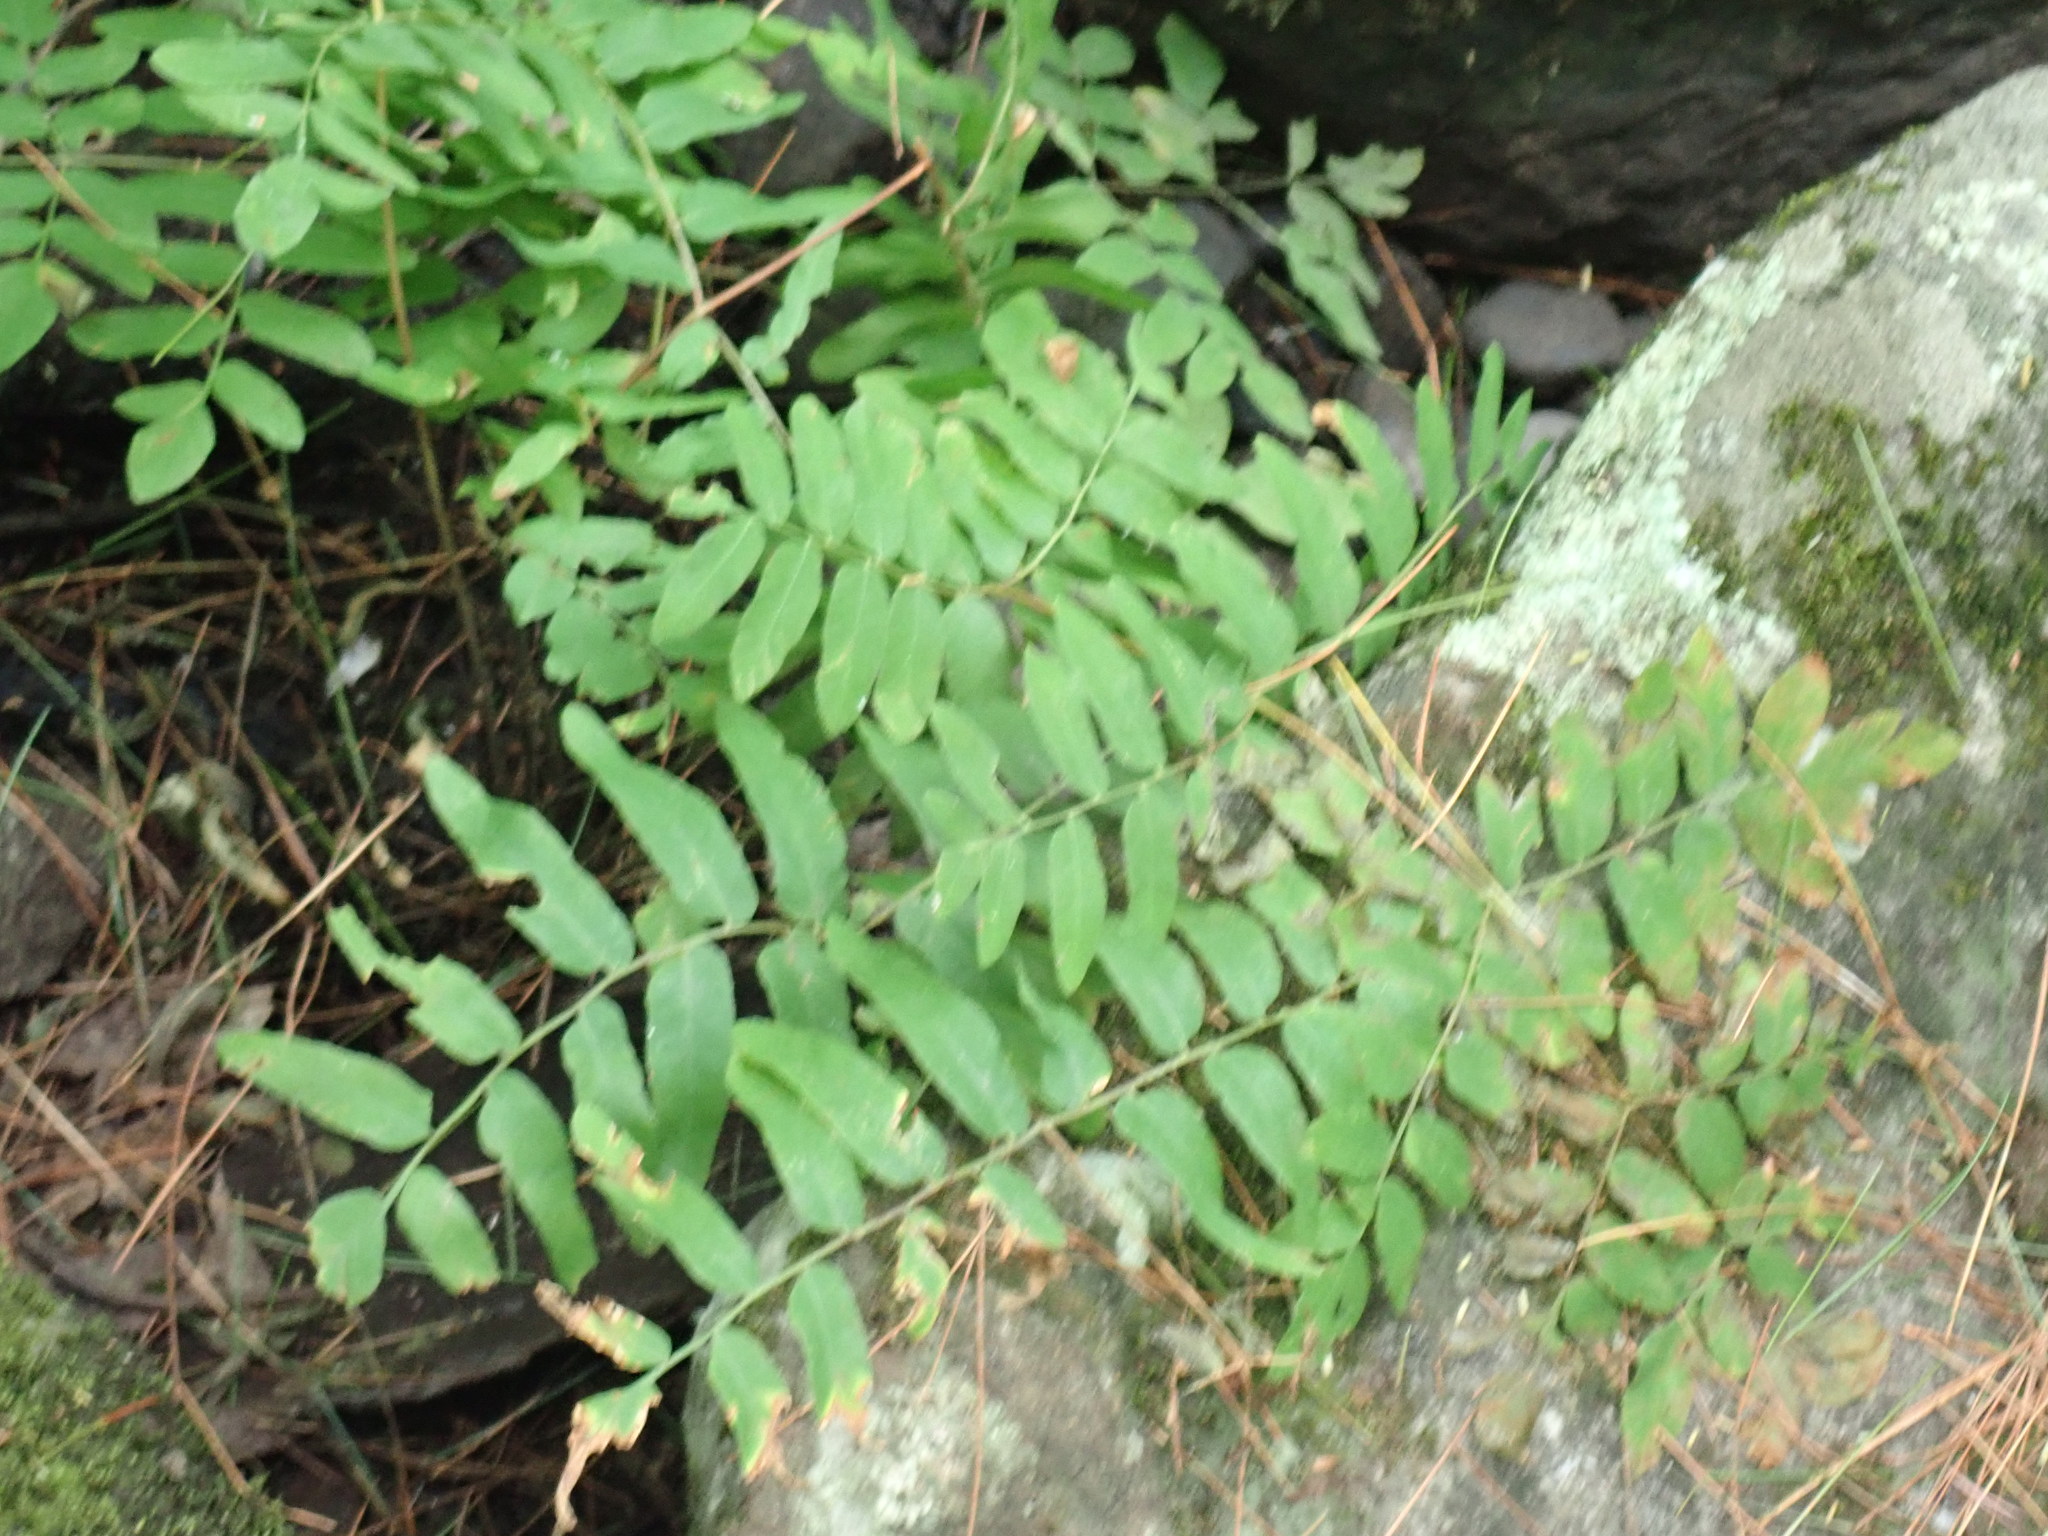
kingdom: Plantae
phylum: Tracheophyta
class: Polypodiopsida
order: Osmundales
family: Osmundaceae
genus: Osmunda
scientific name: Osmunda spectabilis
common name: American royal fern
